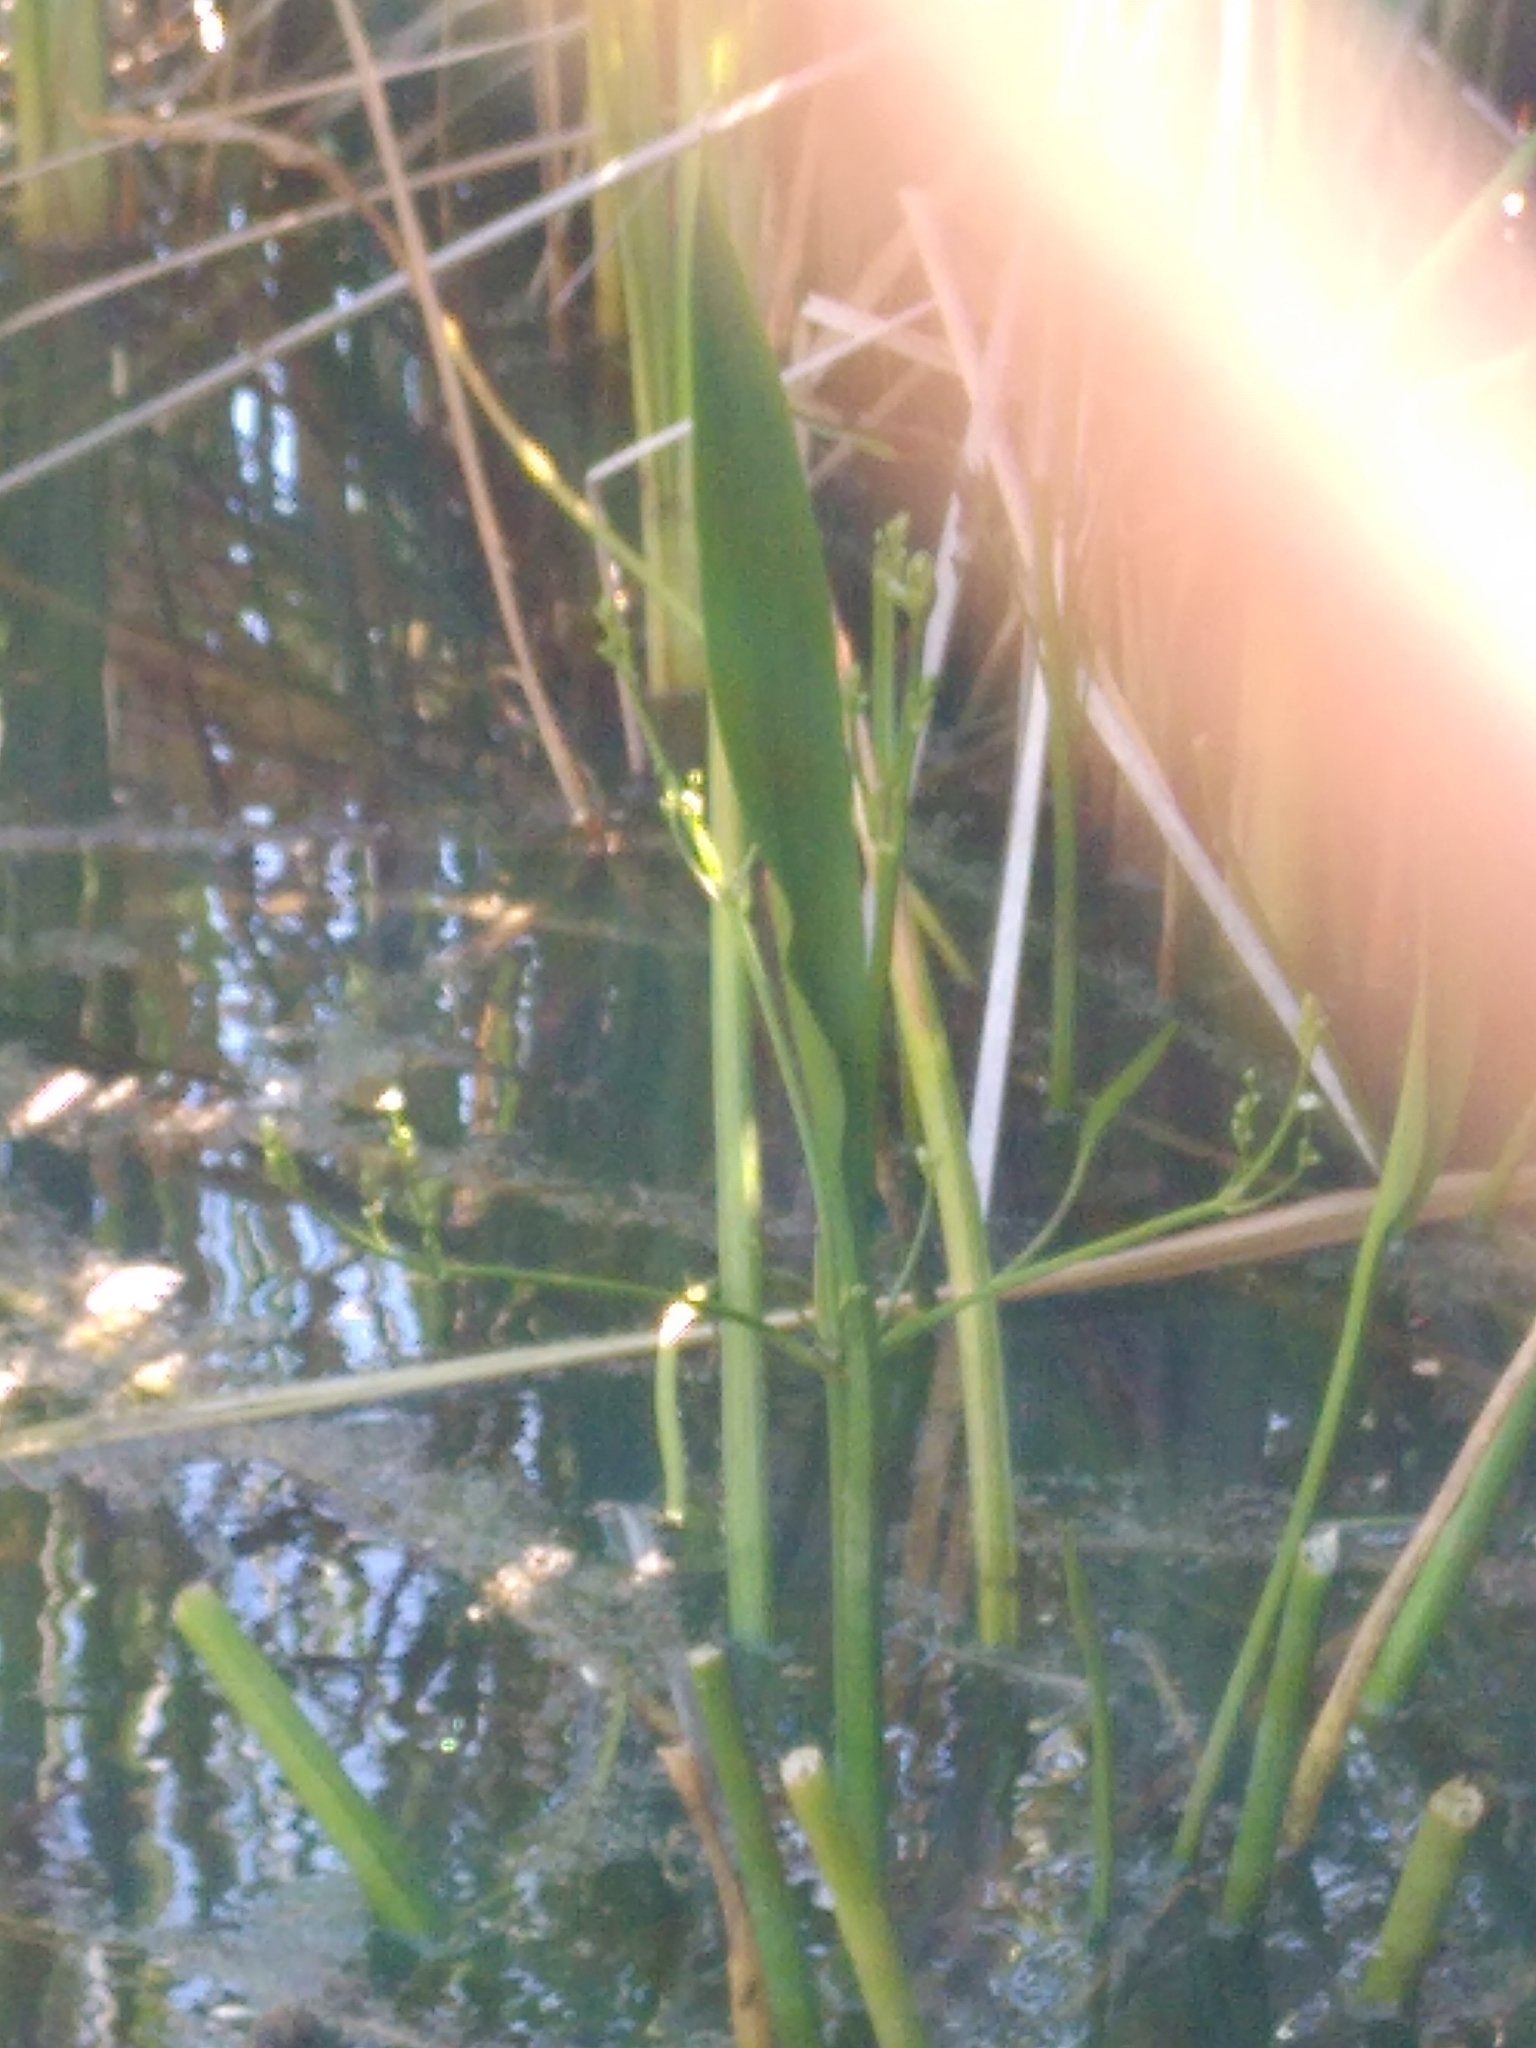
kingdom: Plantae
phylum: Tracheophyta
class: Liliopsida
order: Alismatales
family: Alismataceae
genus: Alisma
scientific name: Alisma lanceolatum
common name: Narrow-leaved water-plantain
